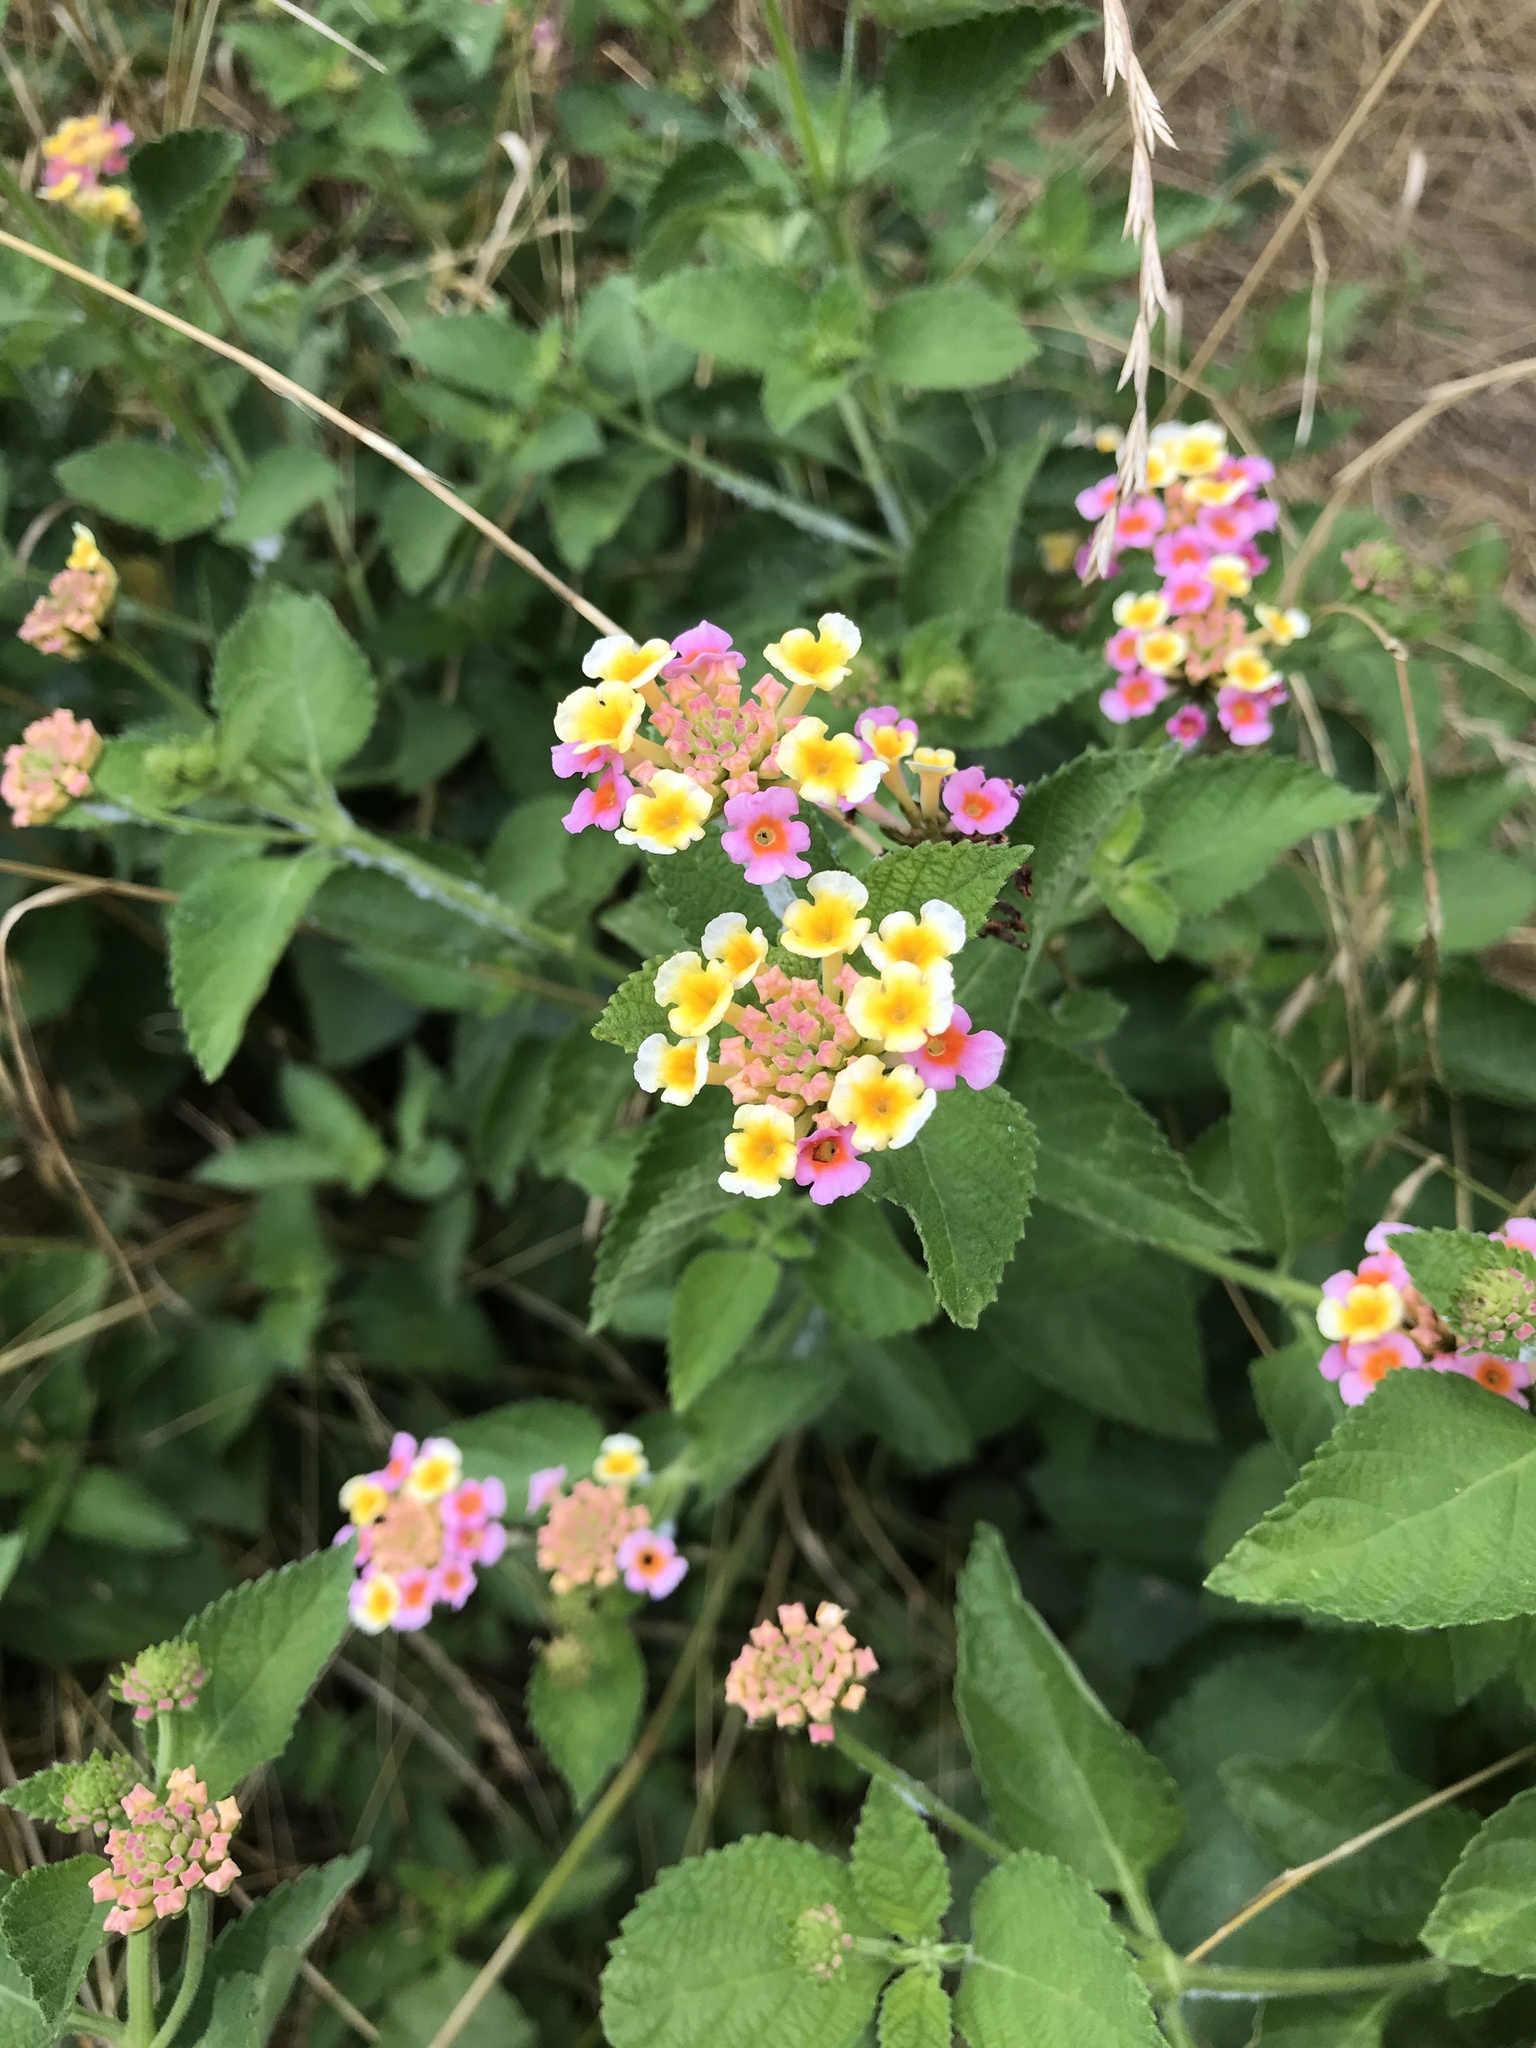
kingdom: Plantae
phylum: Tracheophyta
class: Magnoliopsida
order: Lamiales
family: Verbenaceae
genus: Lantana
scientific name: Lantana strigocamara
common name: Lantana
